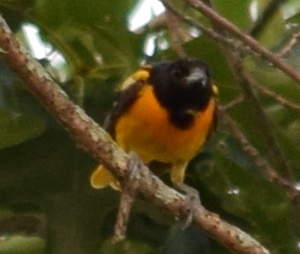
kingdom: Animalia
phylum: Chordata
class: Aves
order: Passeriformes
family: Icteridae
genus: Icterus
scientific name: Icterus galbula
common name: Baltimore oriole
